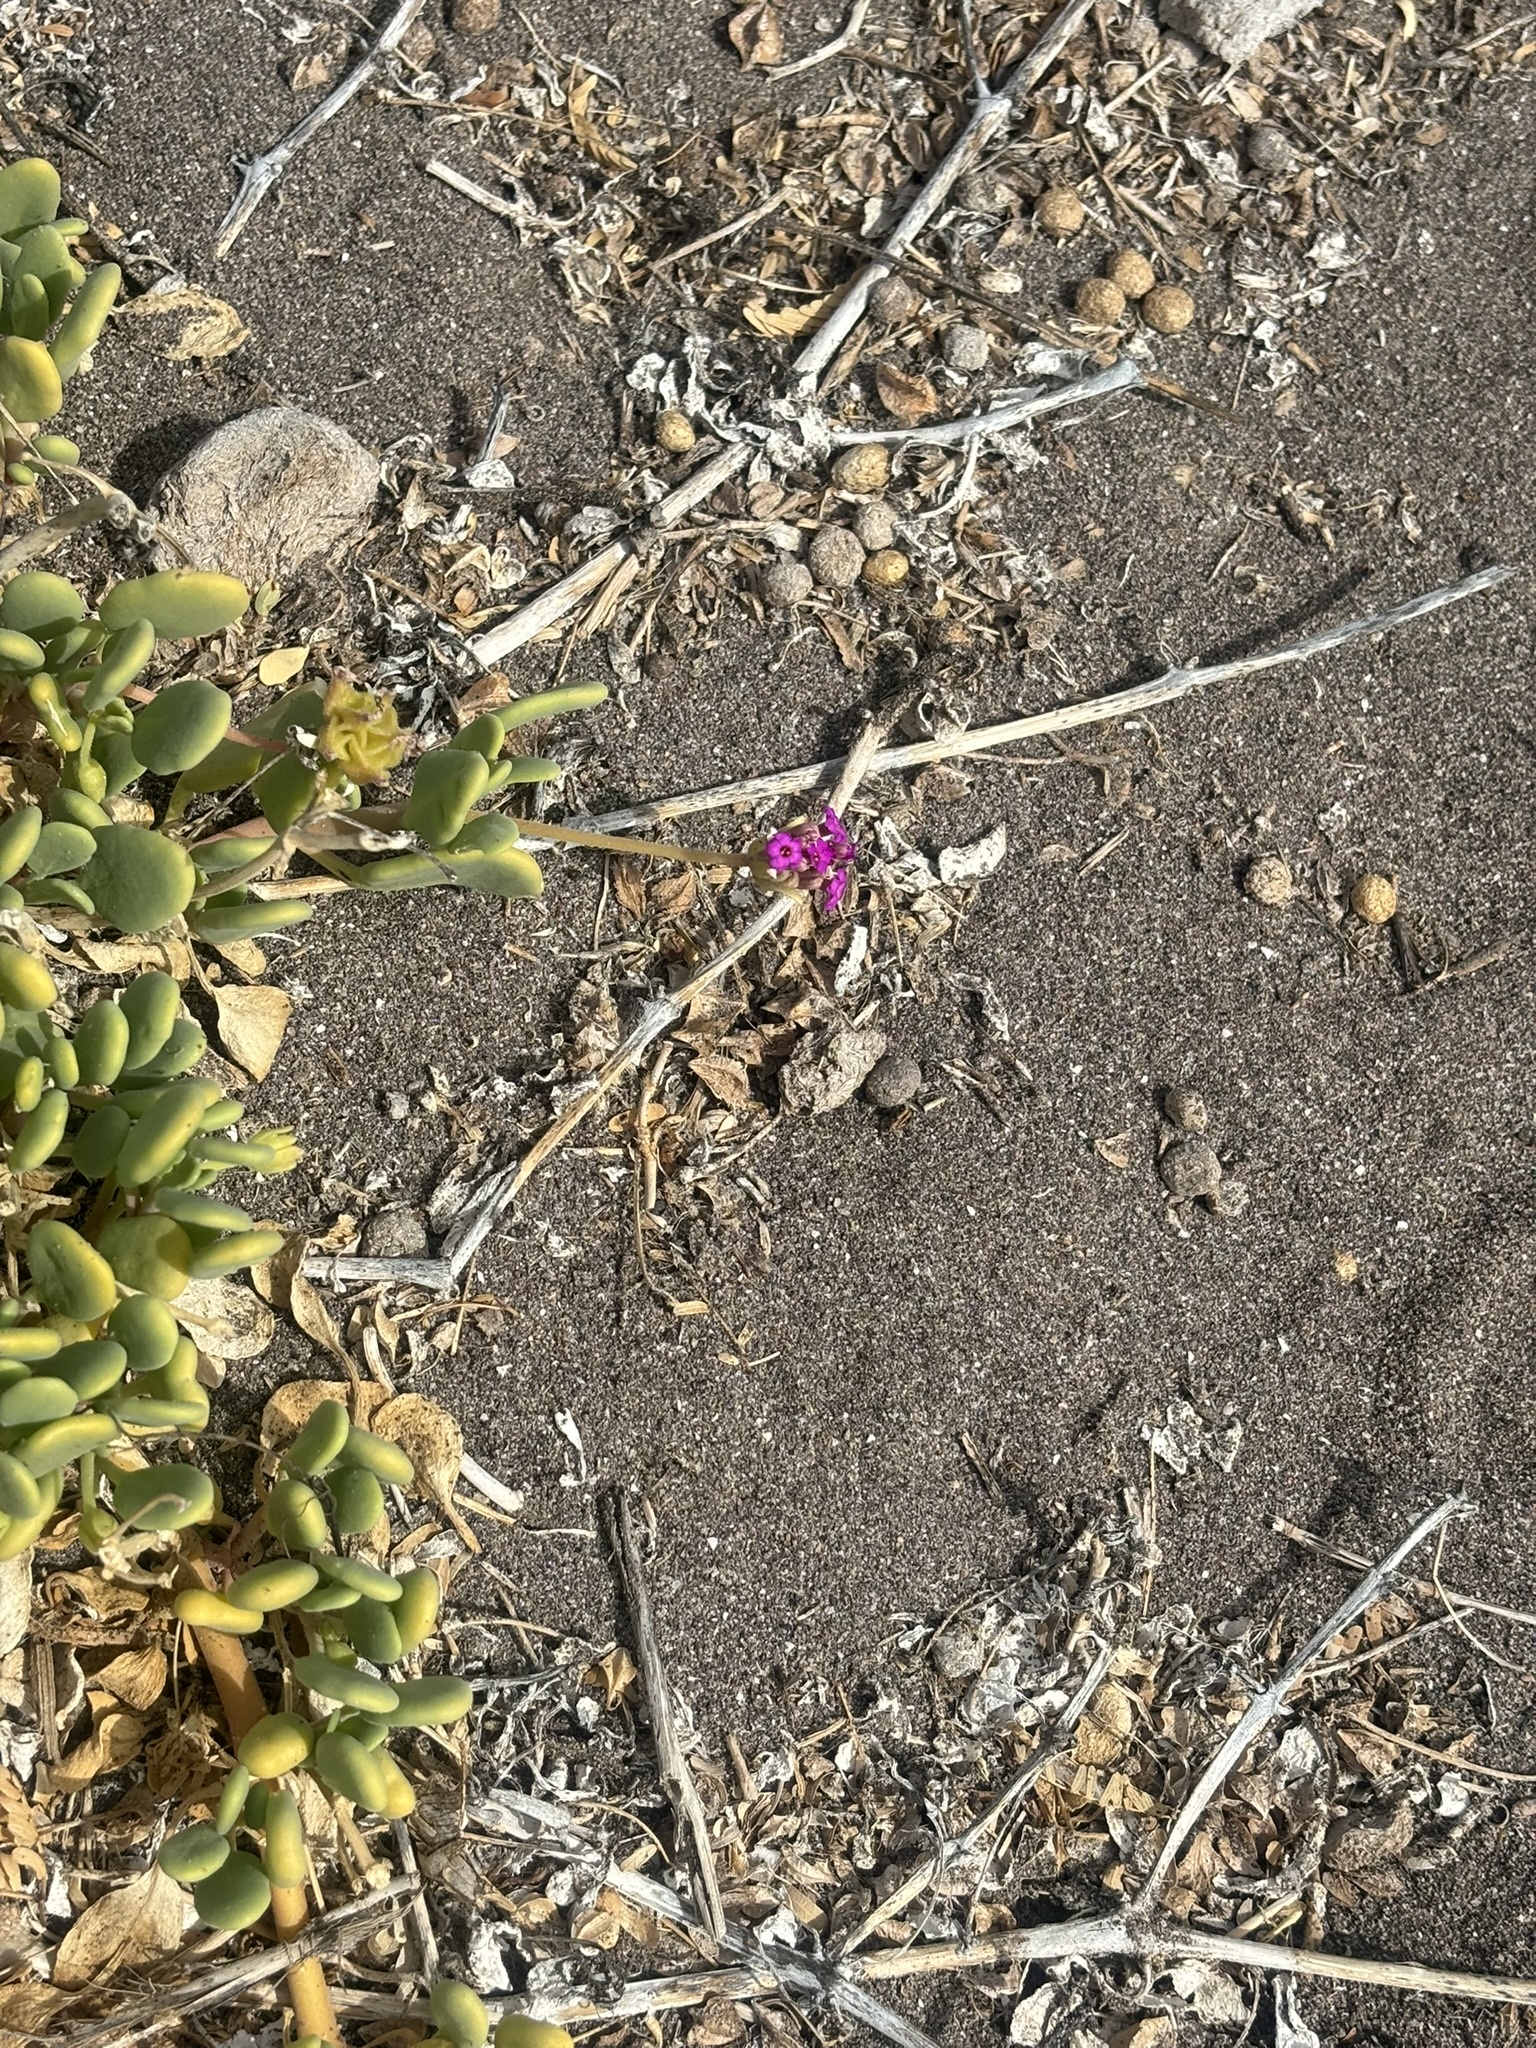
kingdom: Plantae
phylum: Tracheophyta
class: Magnoliopsida
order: Caryophyllales
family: Nyctaginaceae
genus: Abronia
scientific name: Abronia maritima
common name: Red sand-verbena
